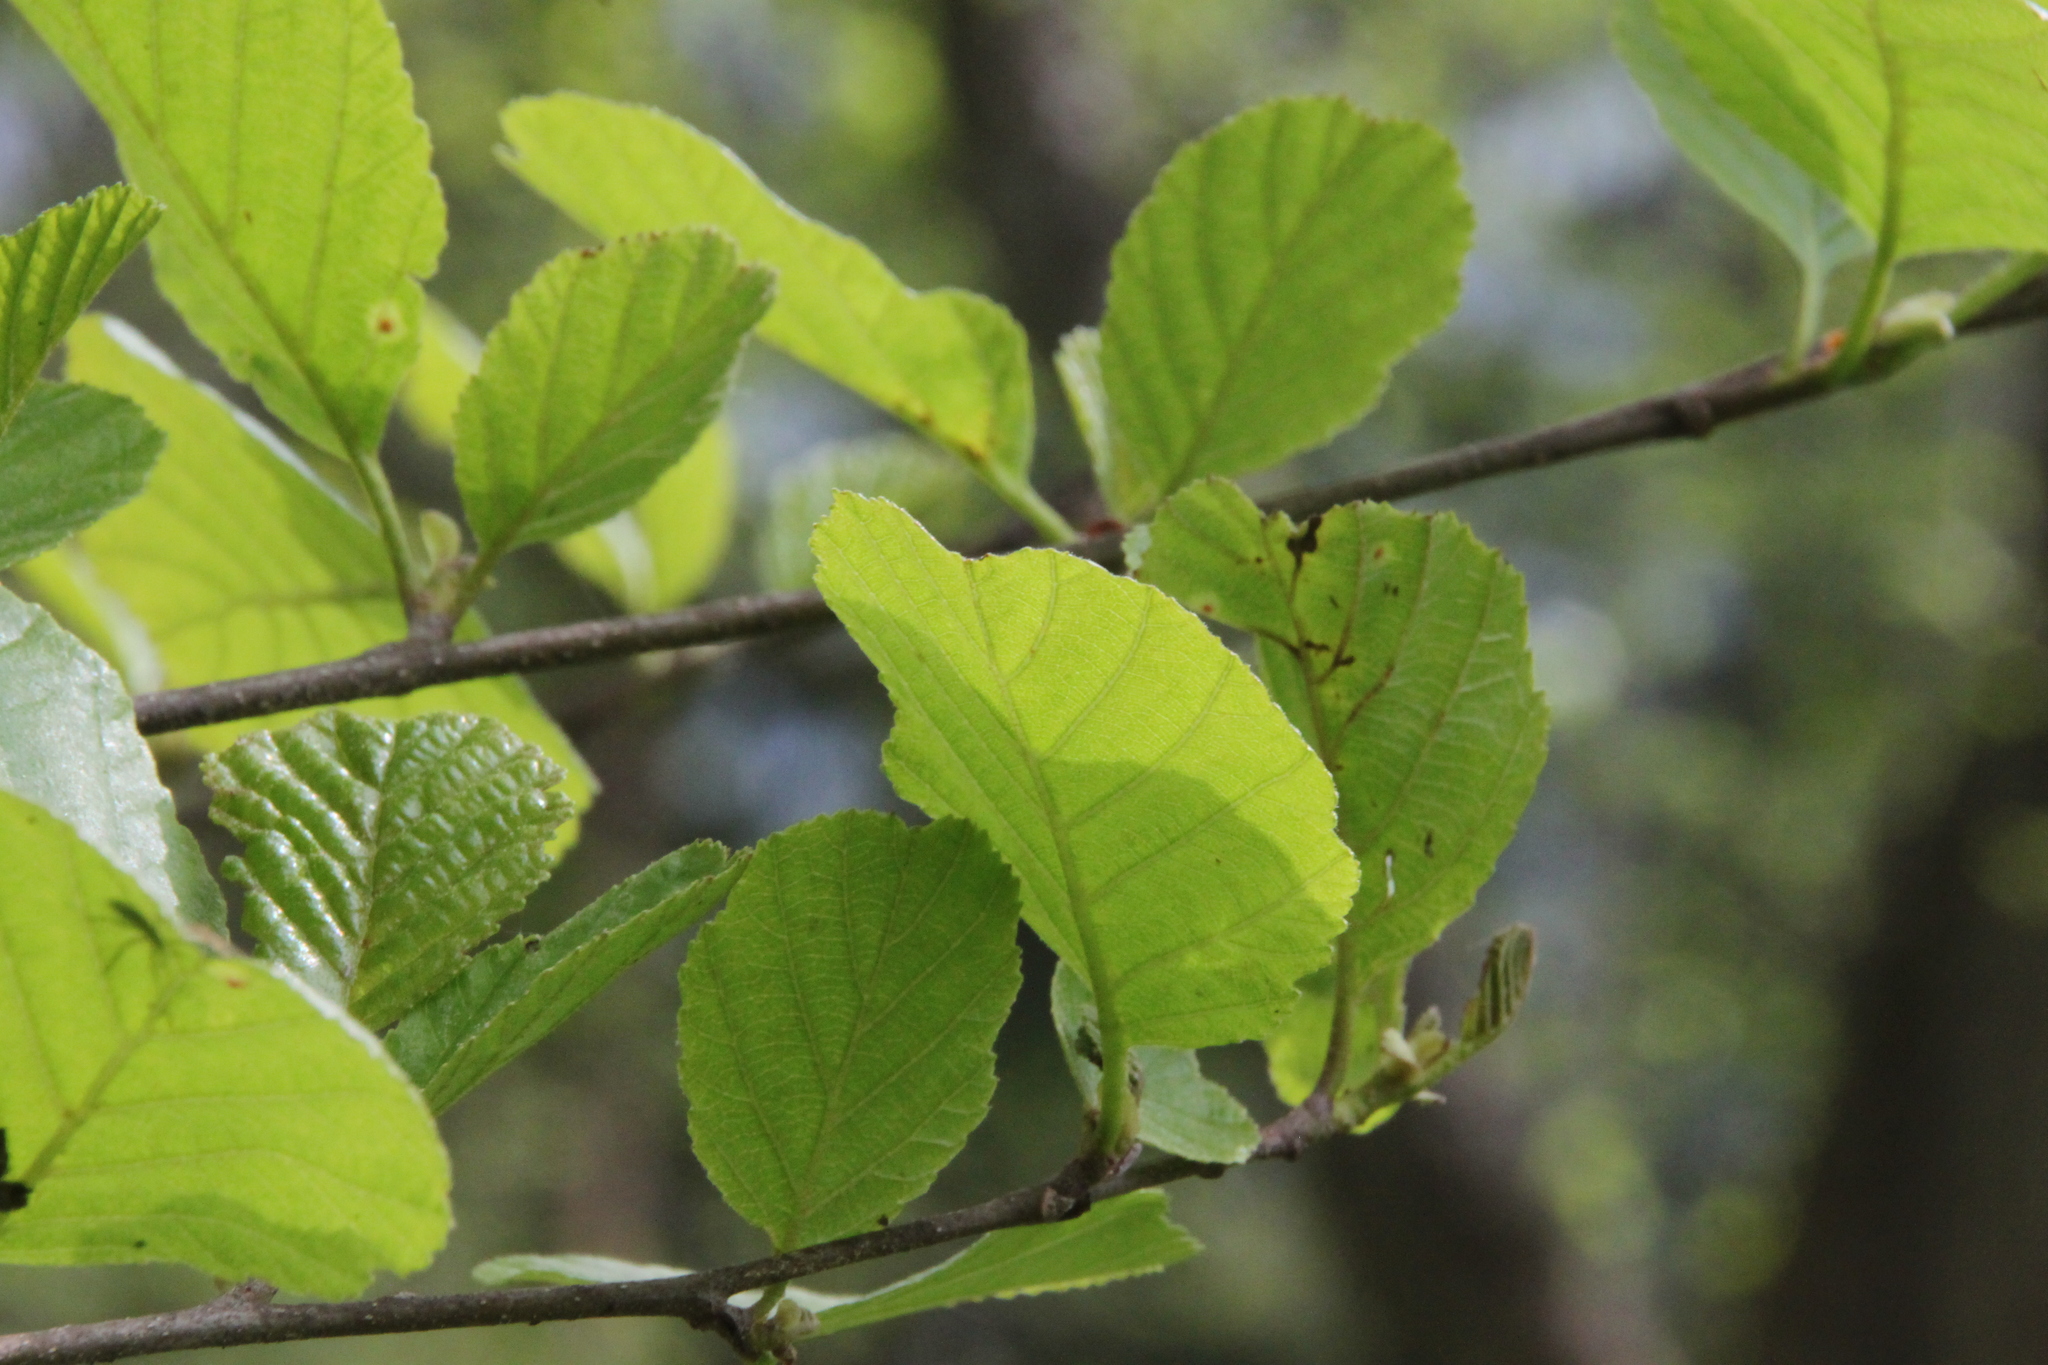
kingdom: Plantae
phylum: Tracheophyta
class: Magnoliopsida
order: Fagales
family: Betulaceae
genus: Alnus
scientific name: Alnus glutinosa
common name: Black alder
